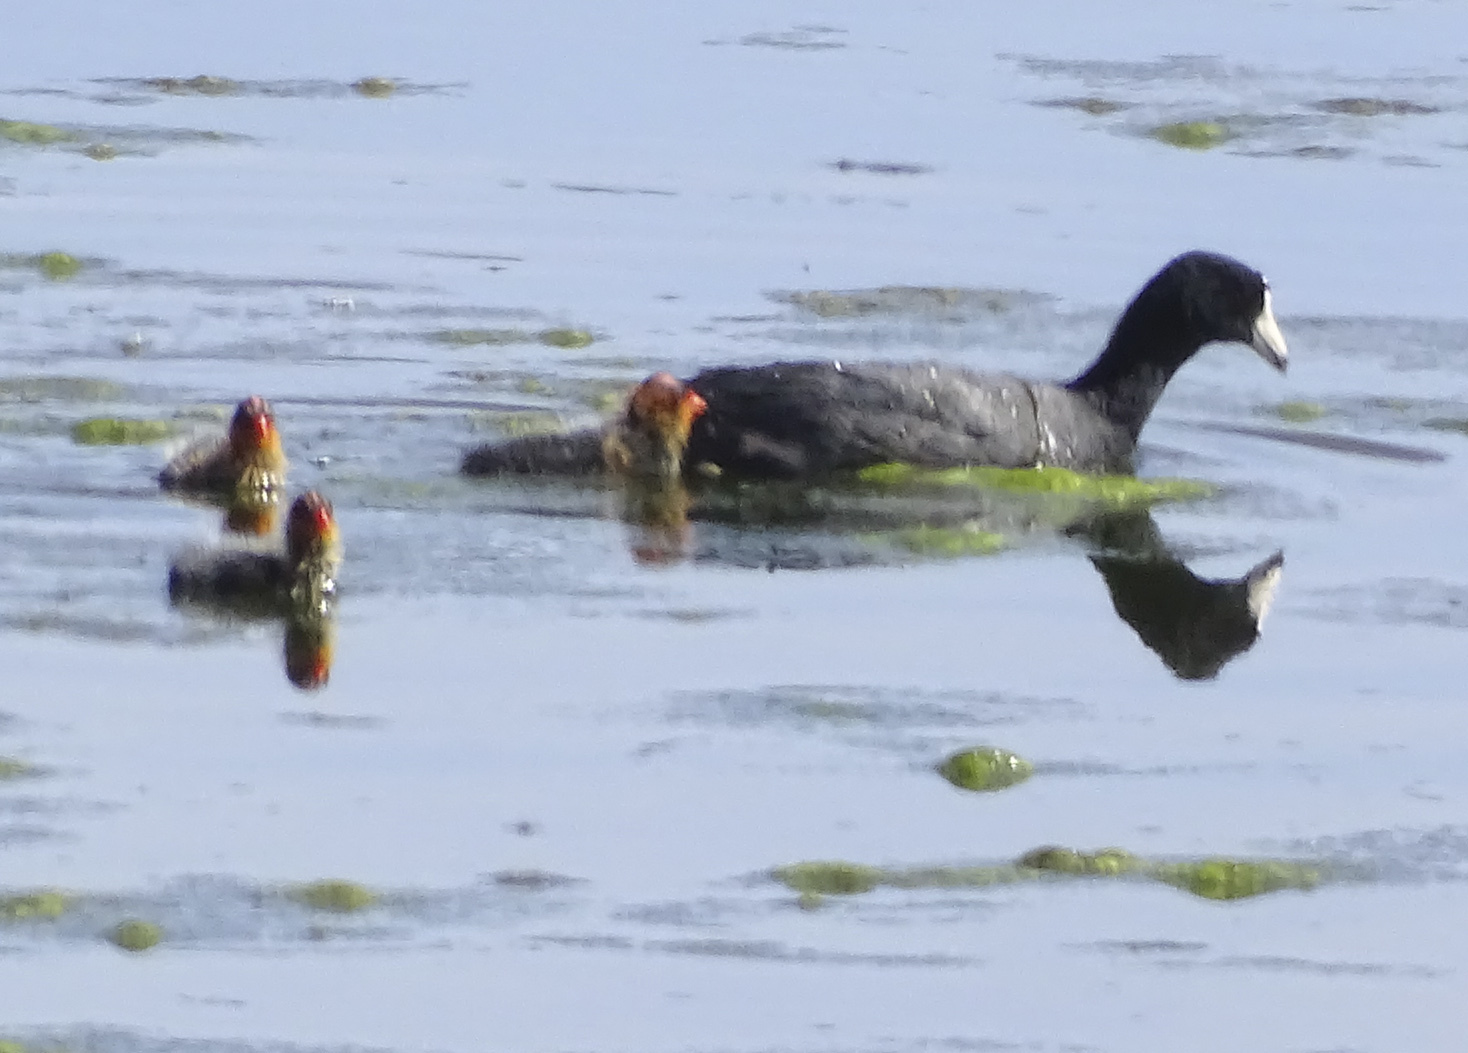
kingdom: Animalia
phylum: Chordata
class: Aves
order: Gruiformes
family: Rallidae
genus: Fulica
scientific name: Fulica americana
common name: American coot
